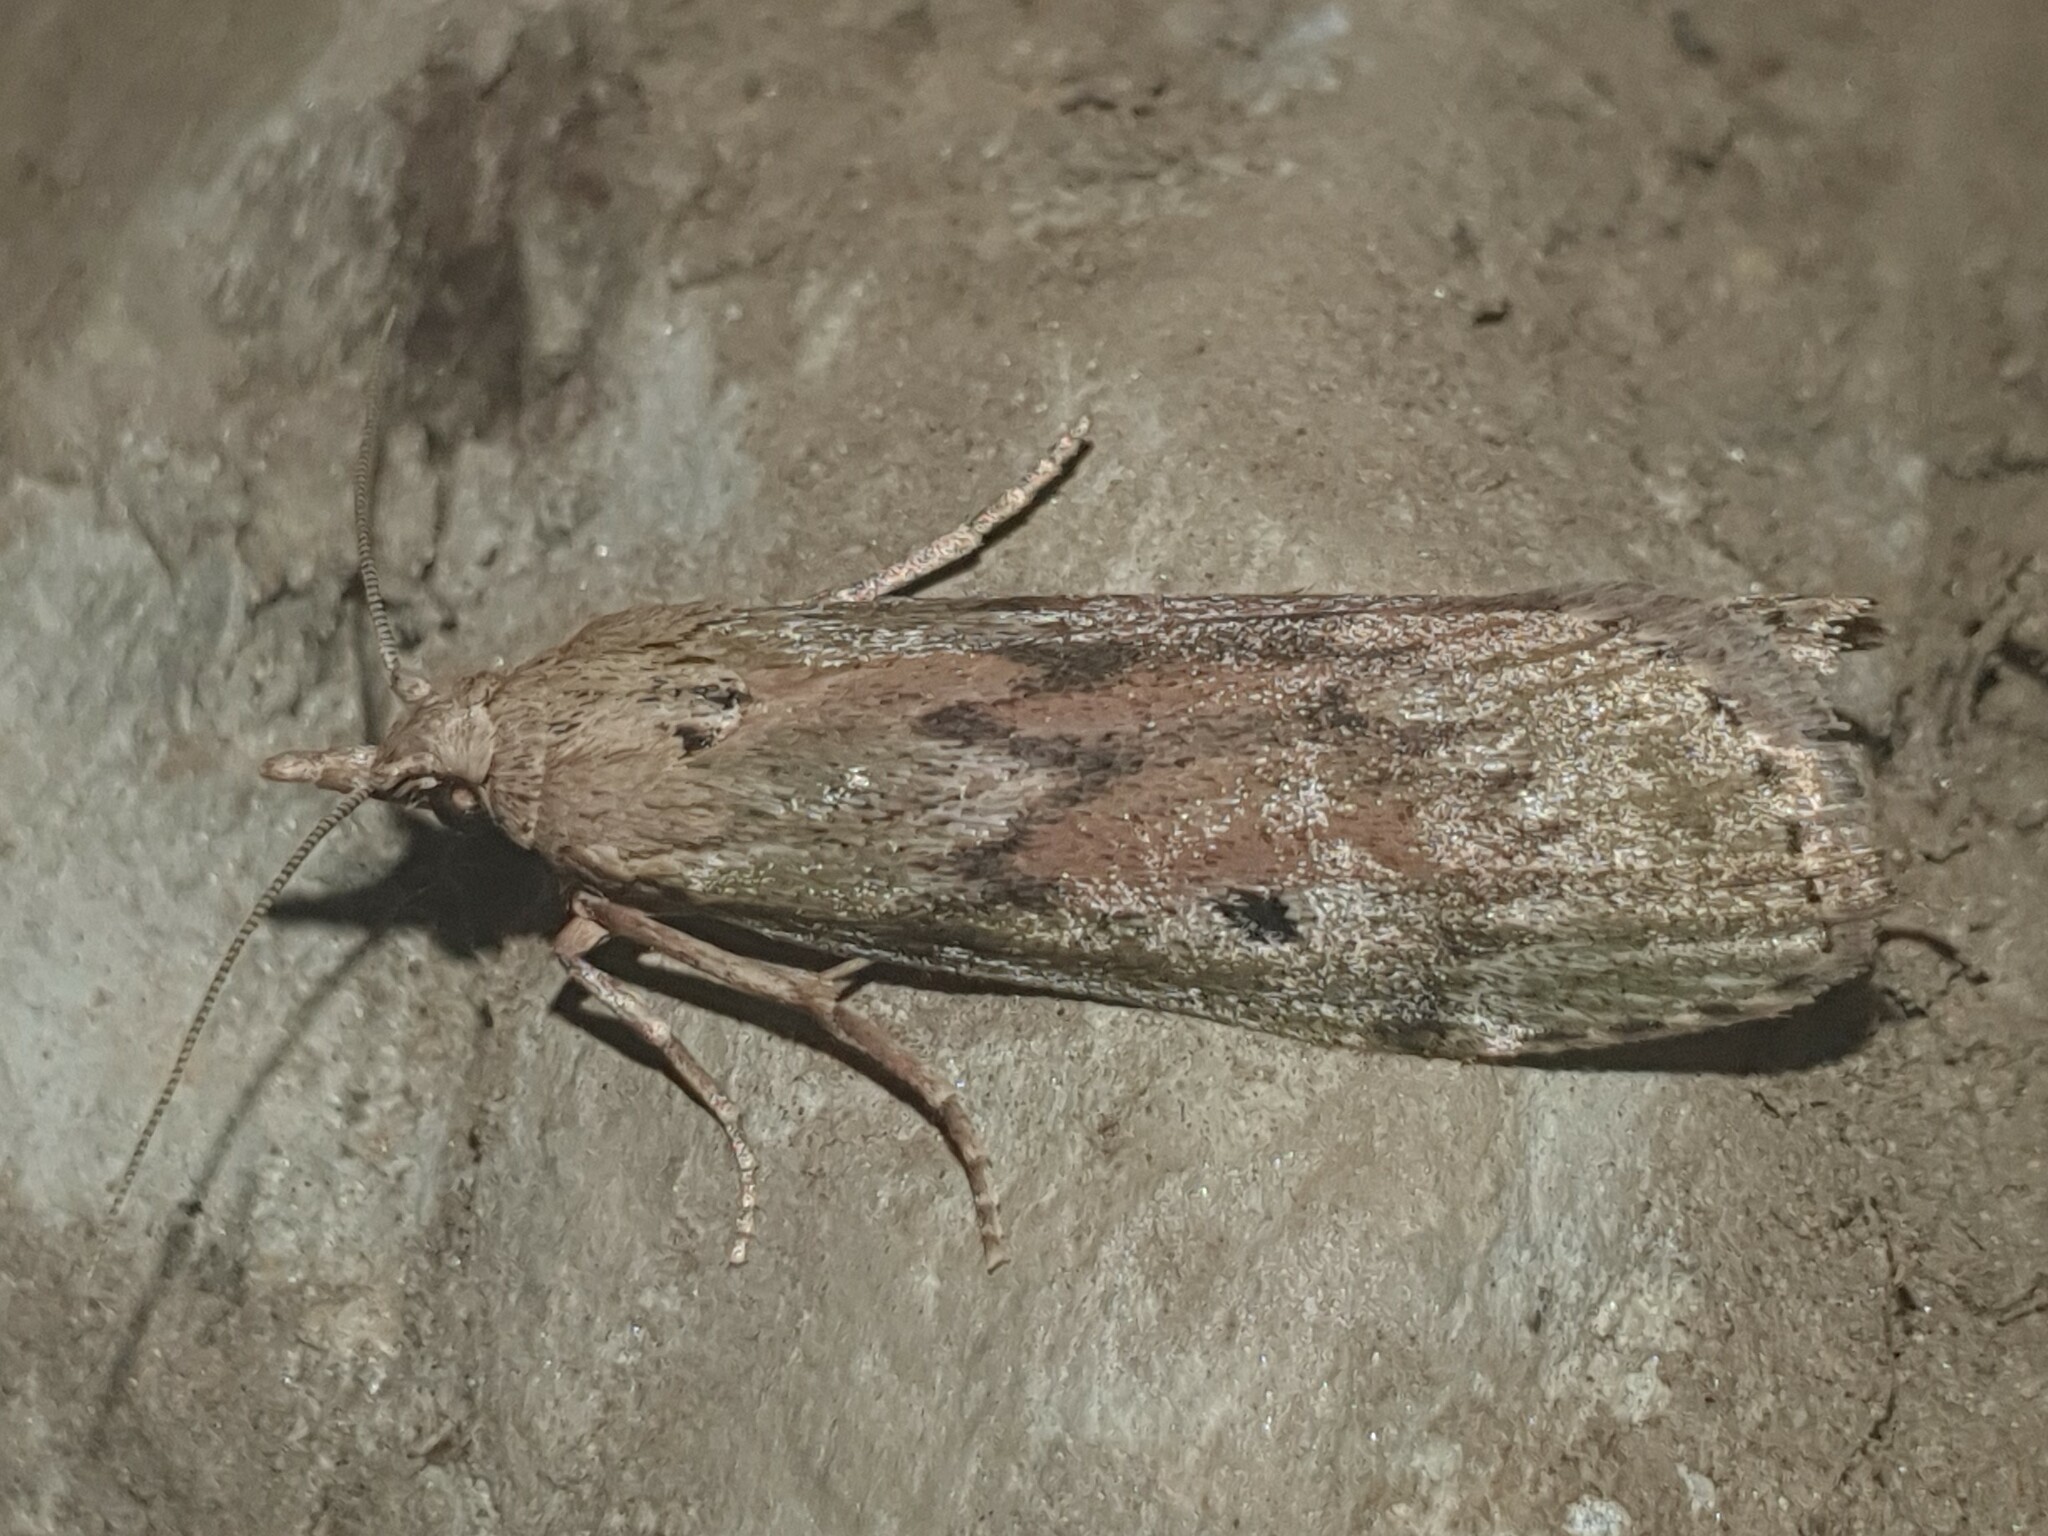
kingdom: Animalia
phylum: Arthropoda
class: Insecta
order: Lepidoptera
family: Pyralidae
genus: Aphomia
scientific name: Aphomia sociella
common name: Bee moth
